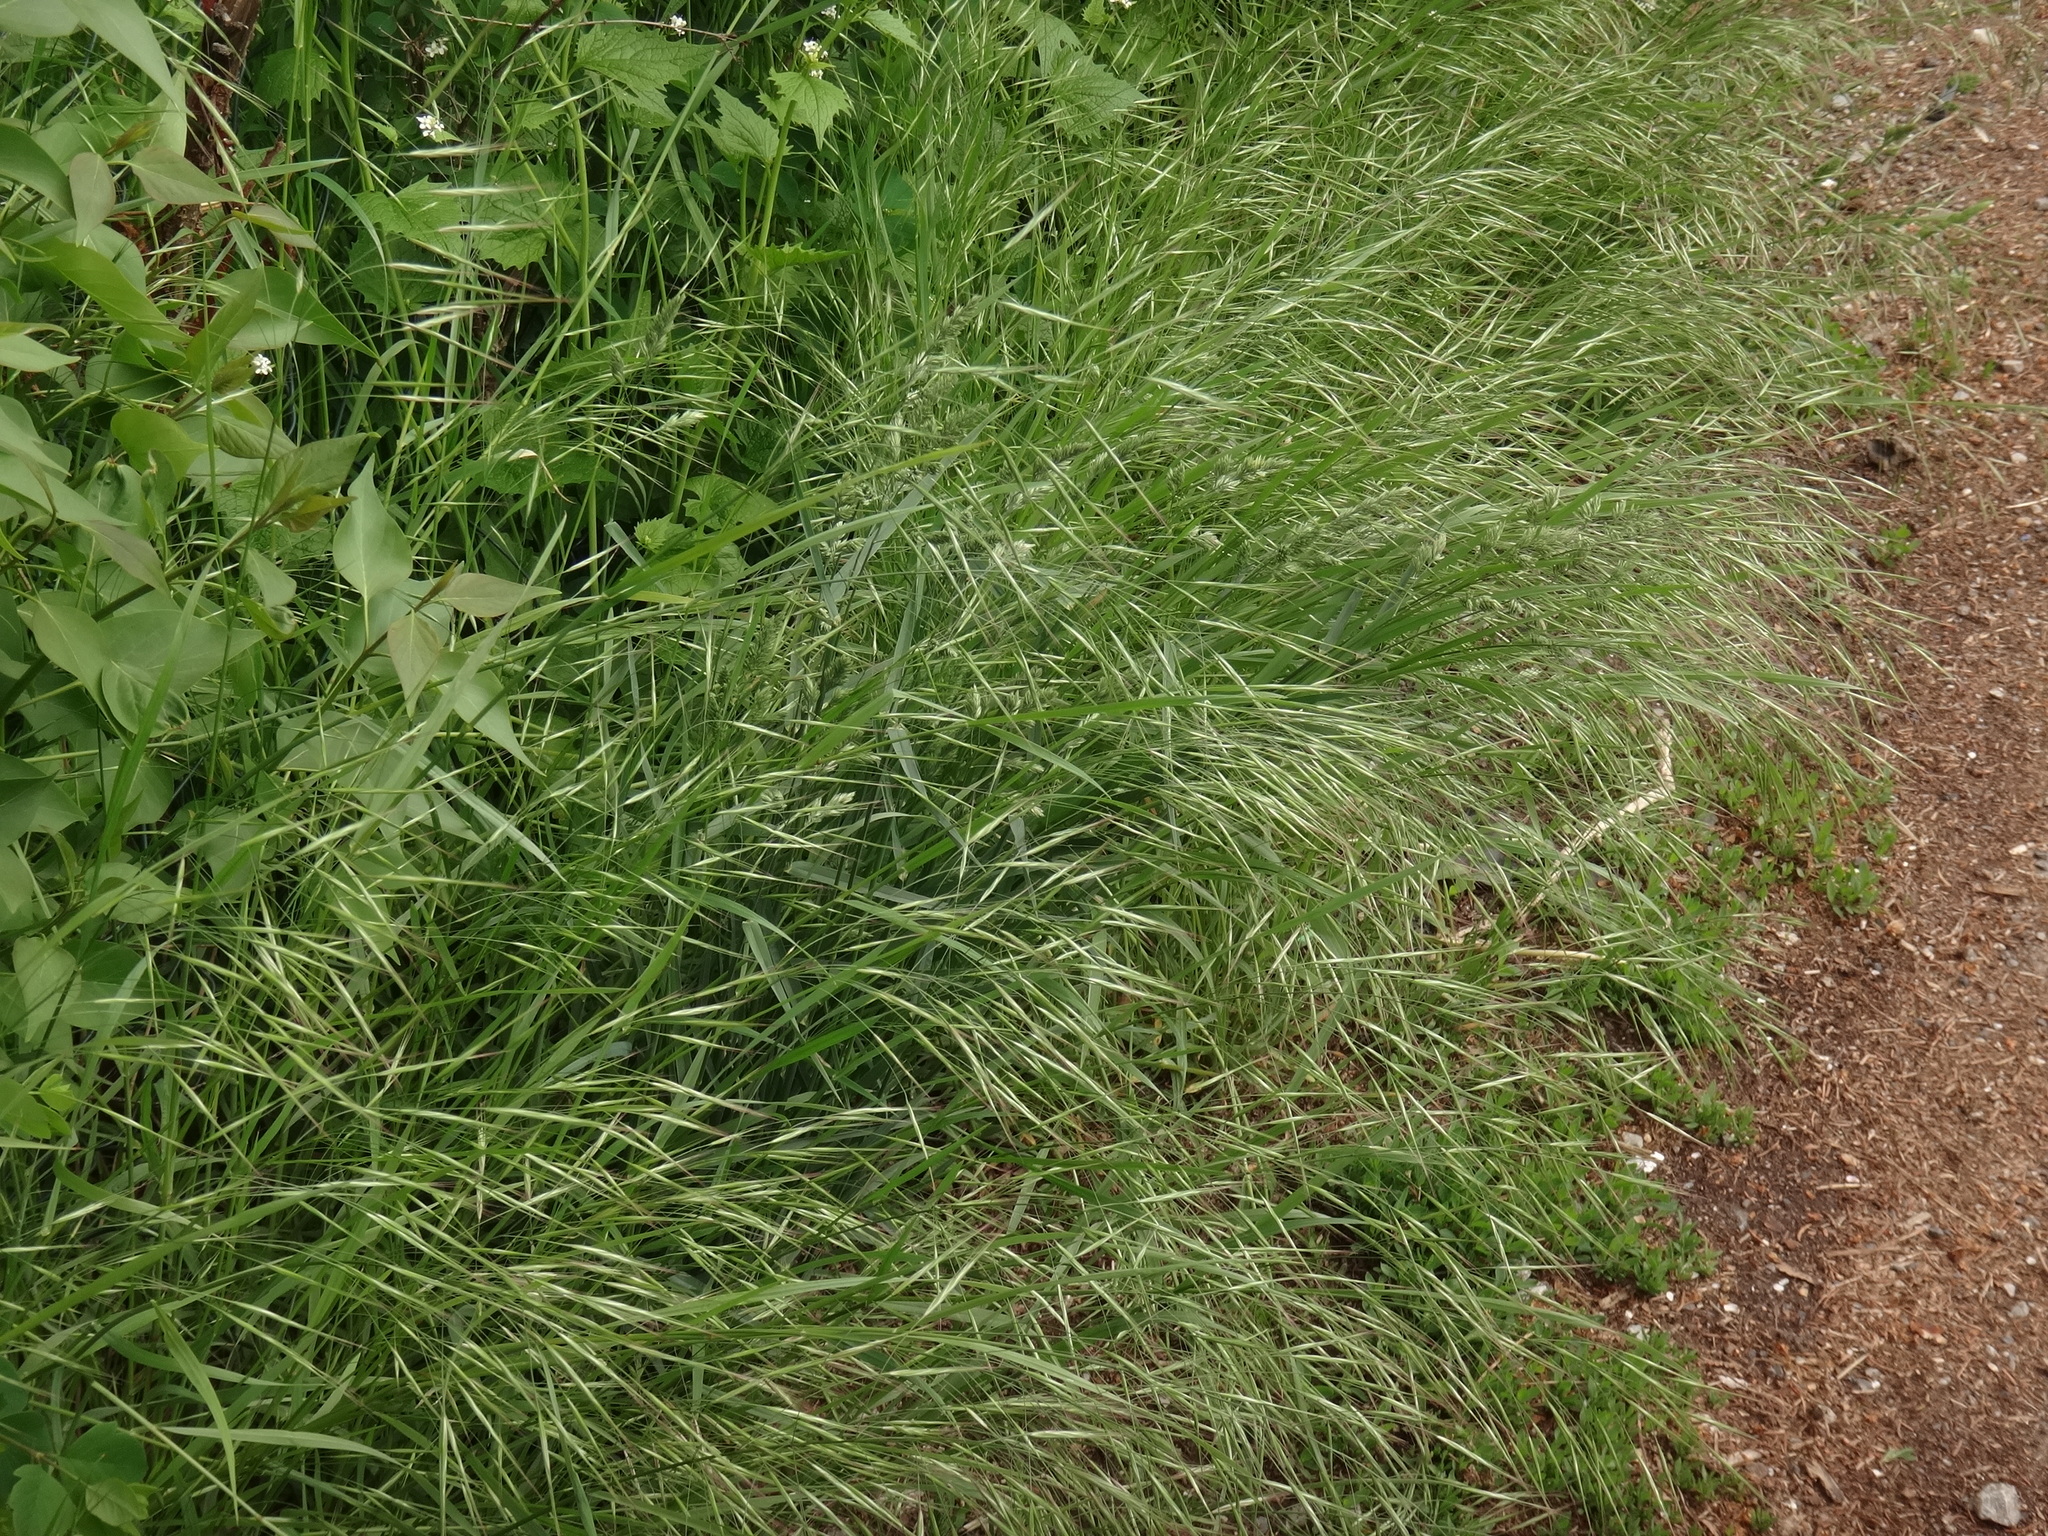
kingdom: Plantae
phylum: Tracheophyta
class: Liliopsida
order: Poales
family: Poaceae
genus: Bromus
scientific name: Bromus sterilis
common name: Poverty brome
